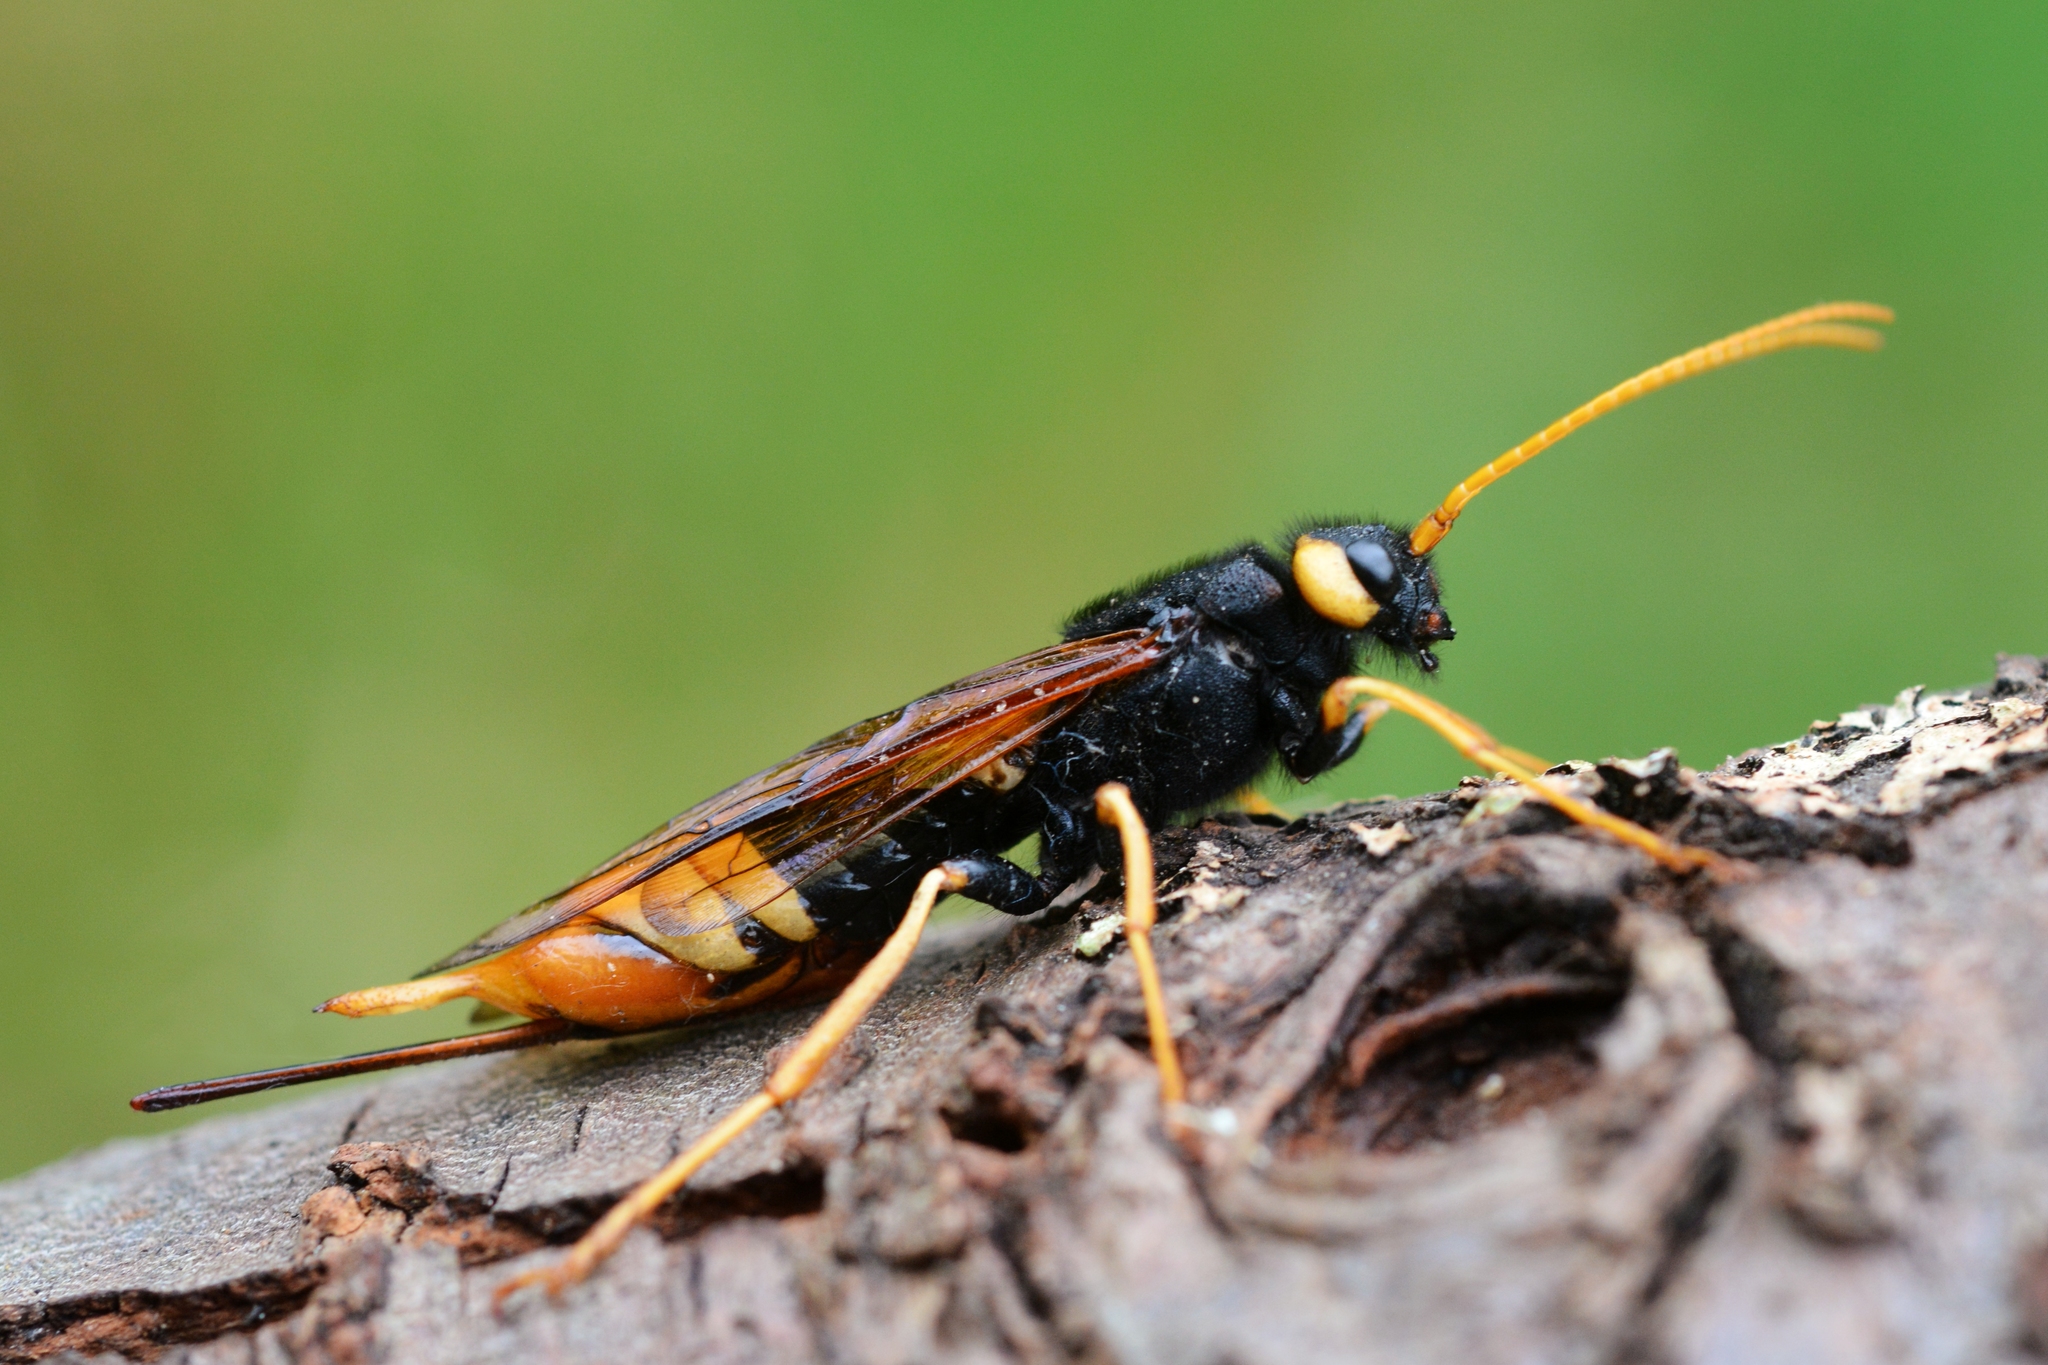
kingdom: Animalia
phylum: Arthropoda
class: Insecta
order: Hymenoptera
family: Siricidae
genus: Urocerus
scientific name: Urocerus gigas
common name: Giant woodwasp
